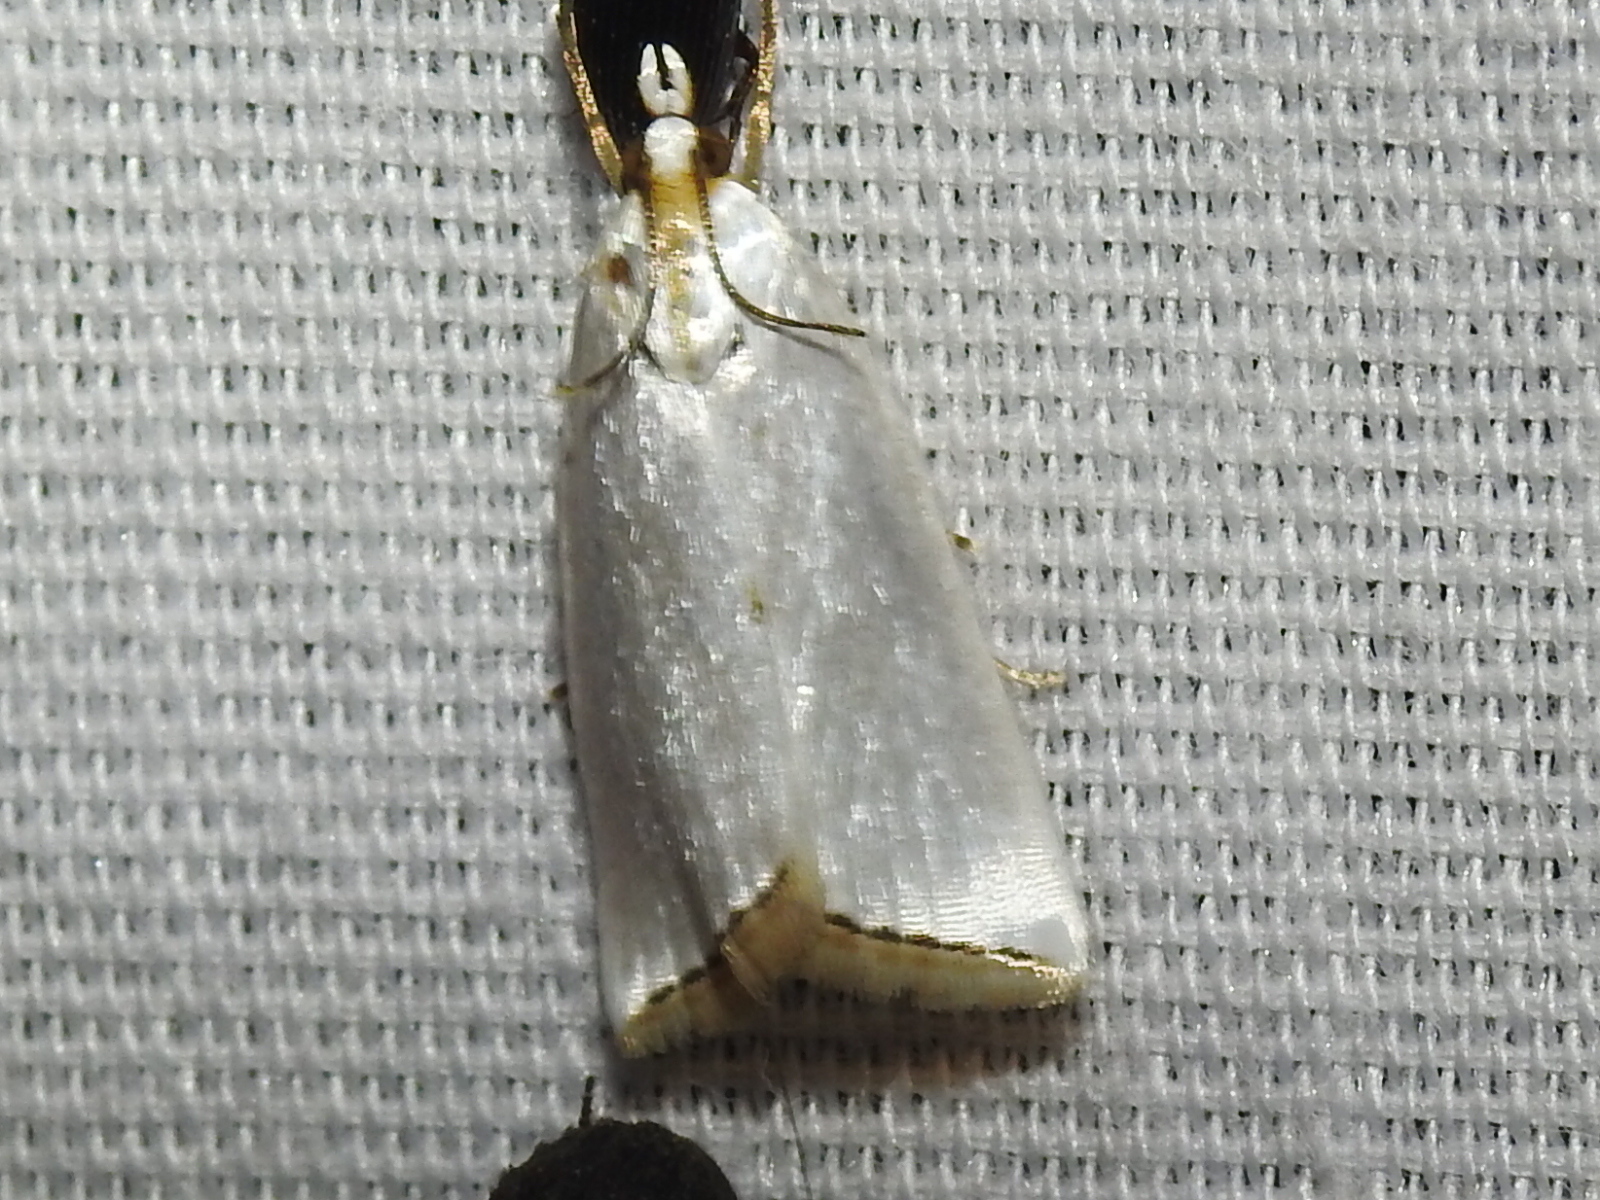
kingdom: Animalia
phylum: Arthropoda
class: Insecta
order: Lepidoptera
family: Crambidae
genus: Argyria
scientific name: Argyria nivalis
